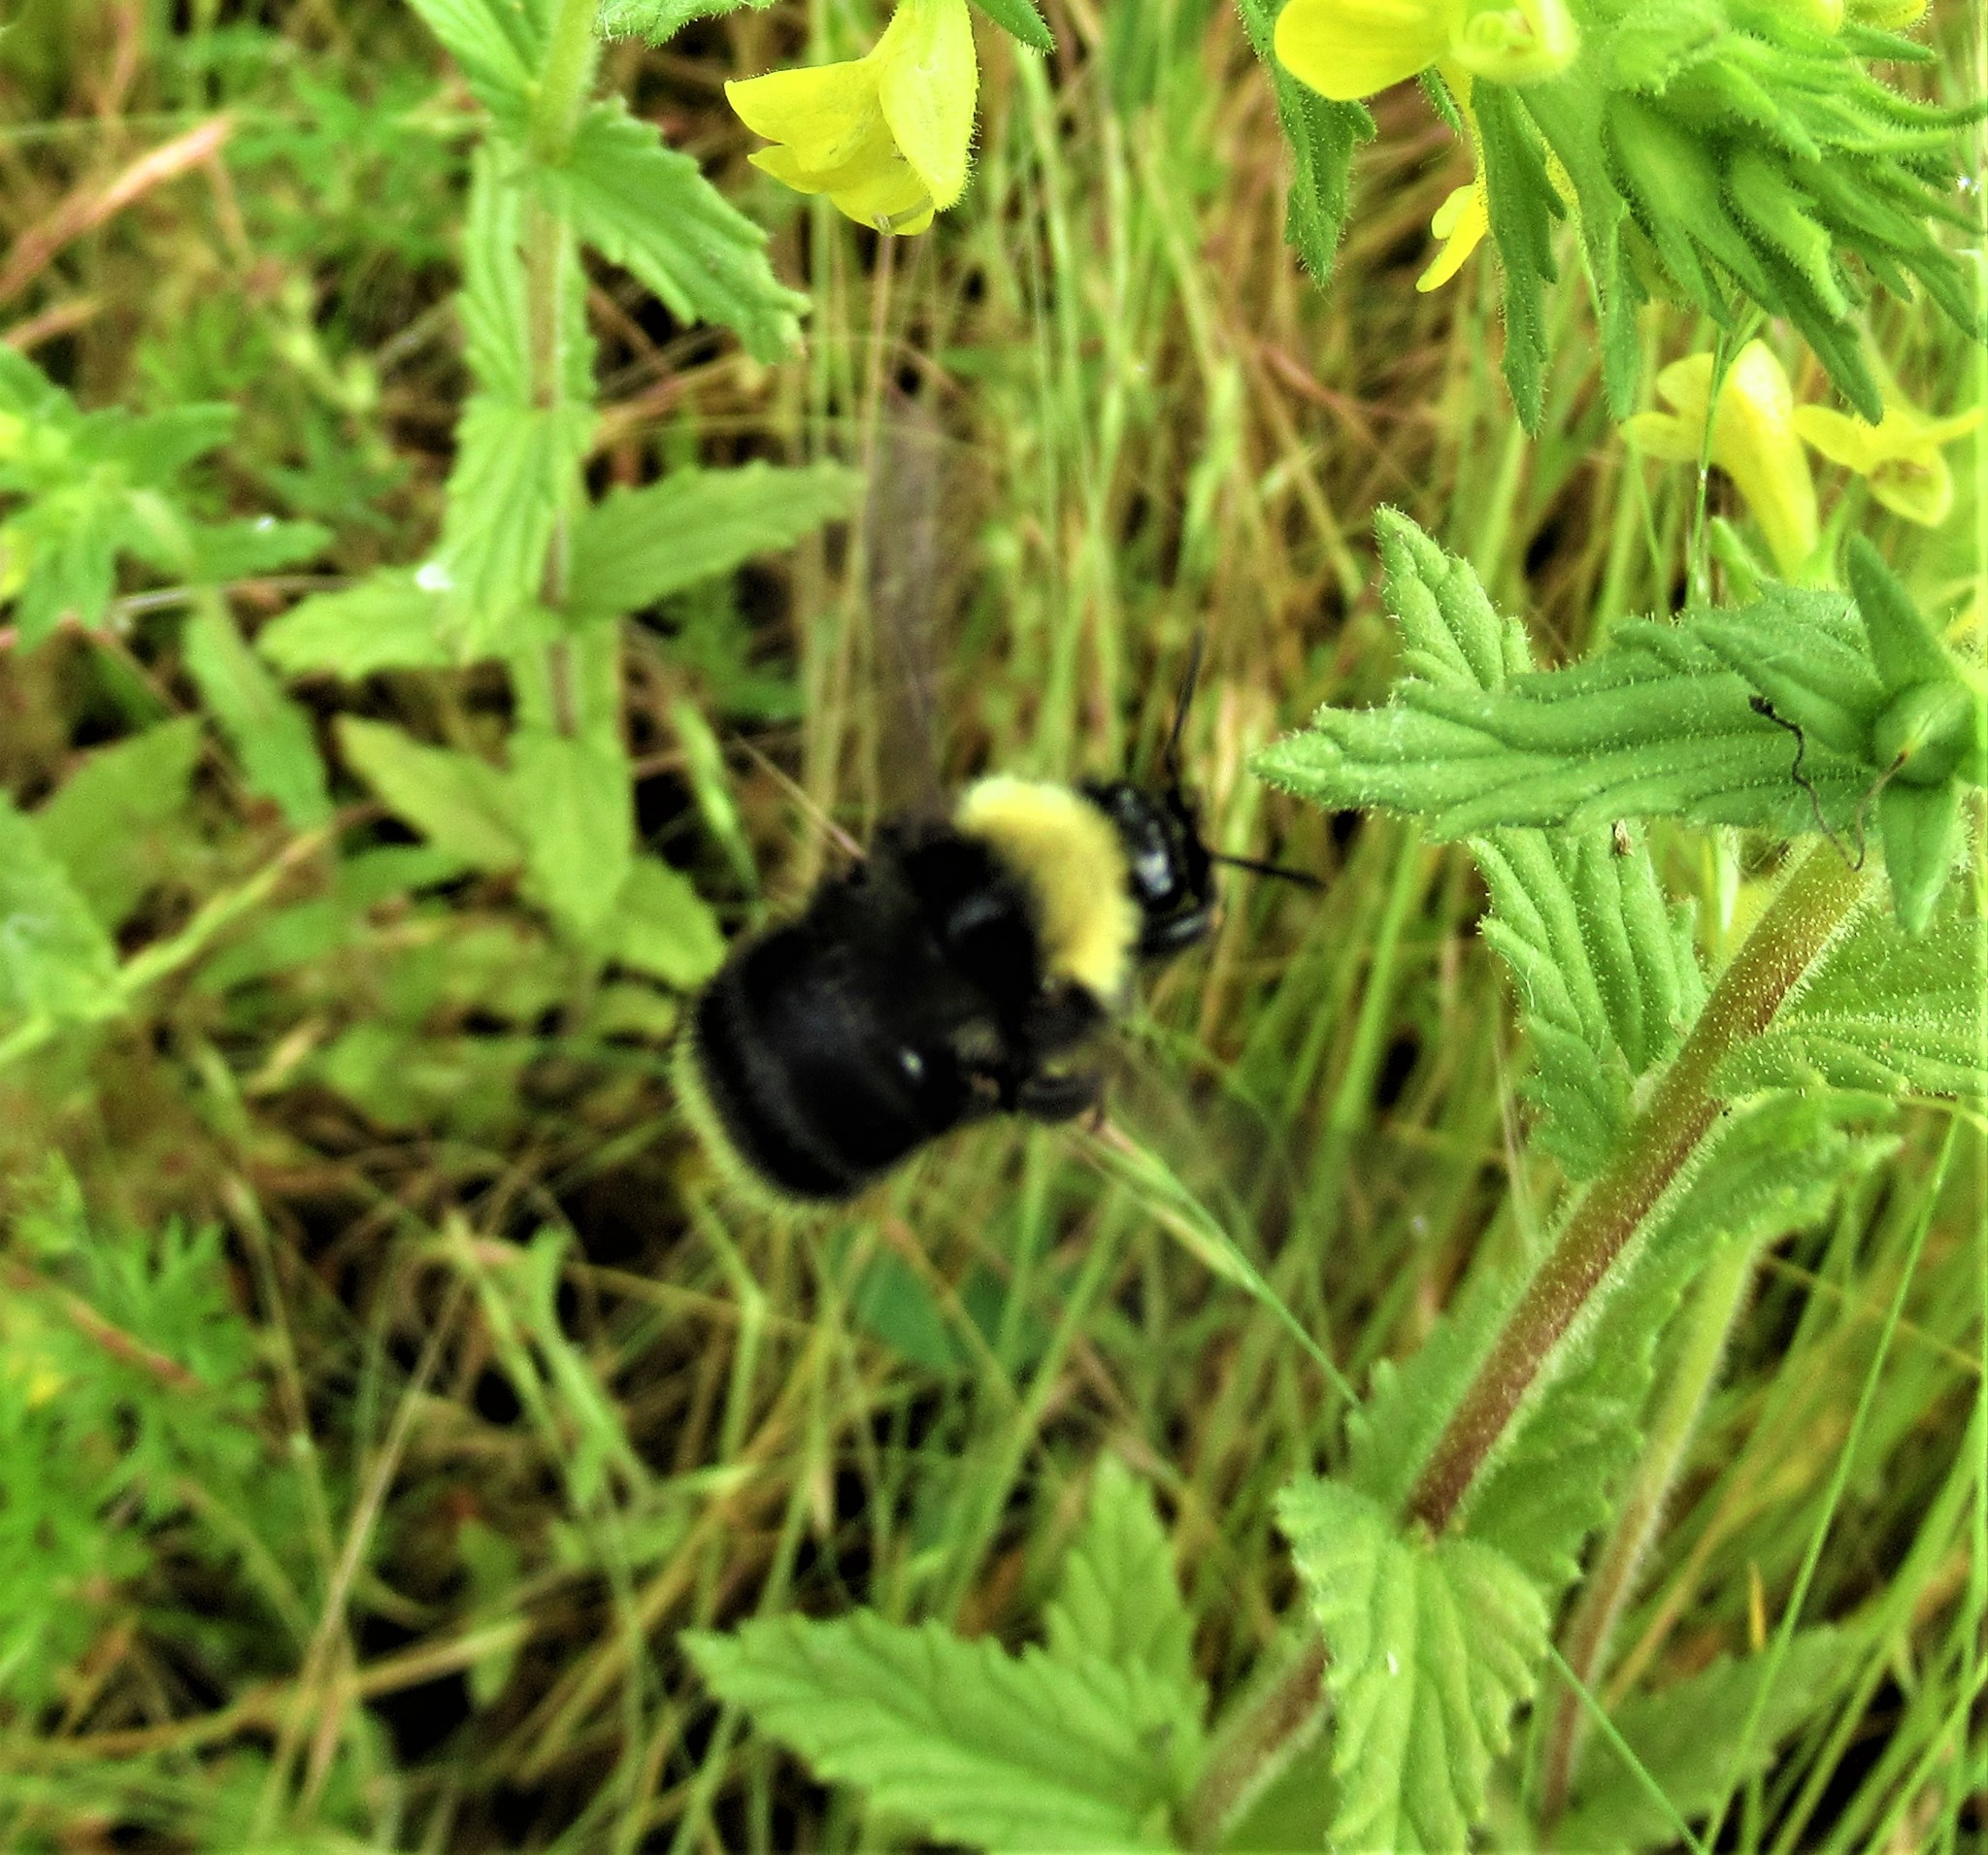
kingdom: Animalia
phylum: Arthropoda
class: Insecta
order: Hymenoptera
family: Apidae
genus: Bombus
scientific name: Bombus californicus
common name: California bumble bee
